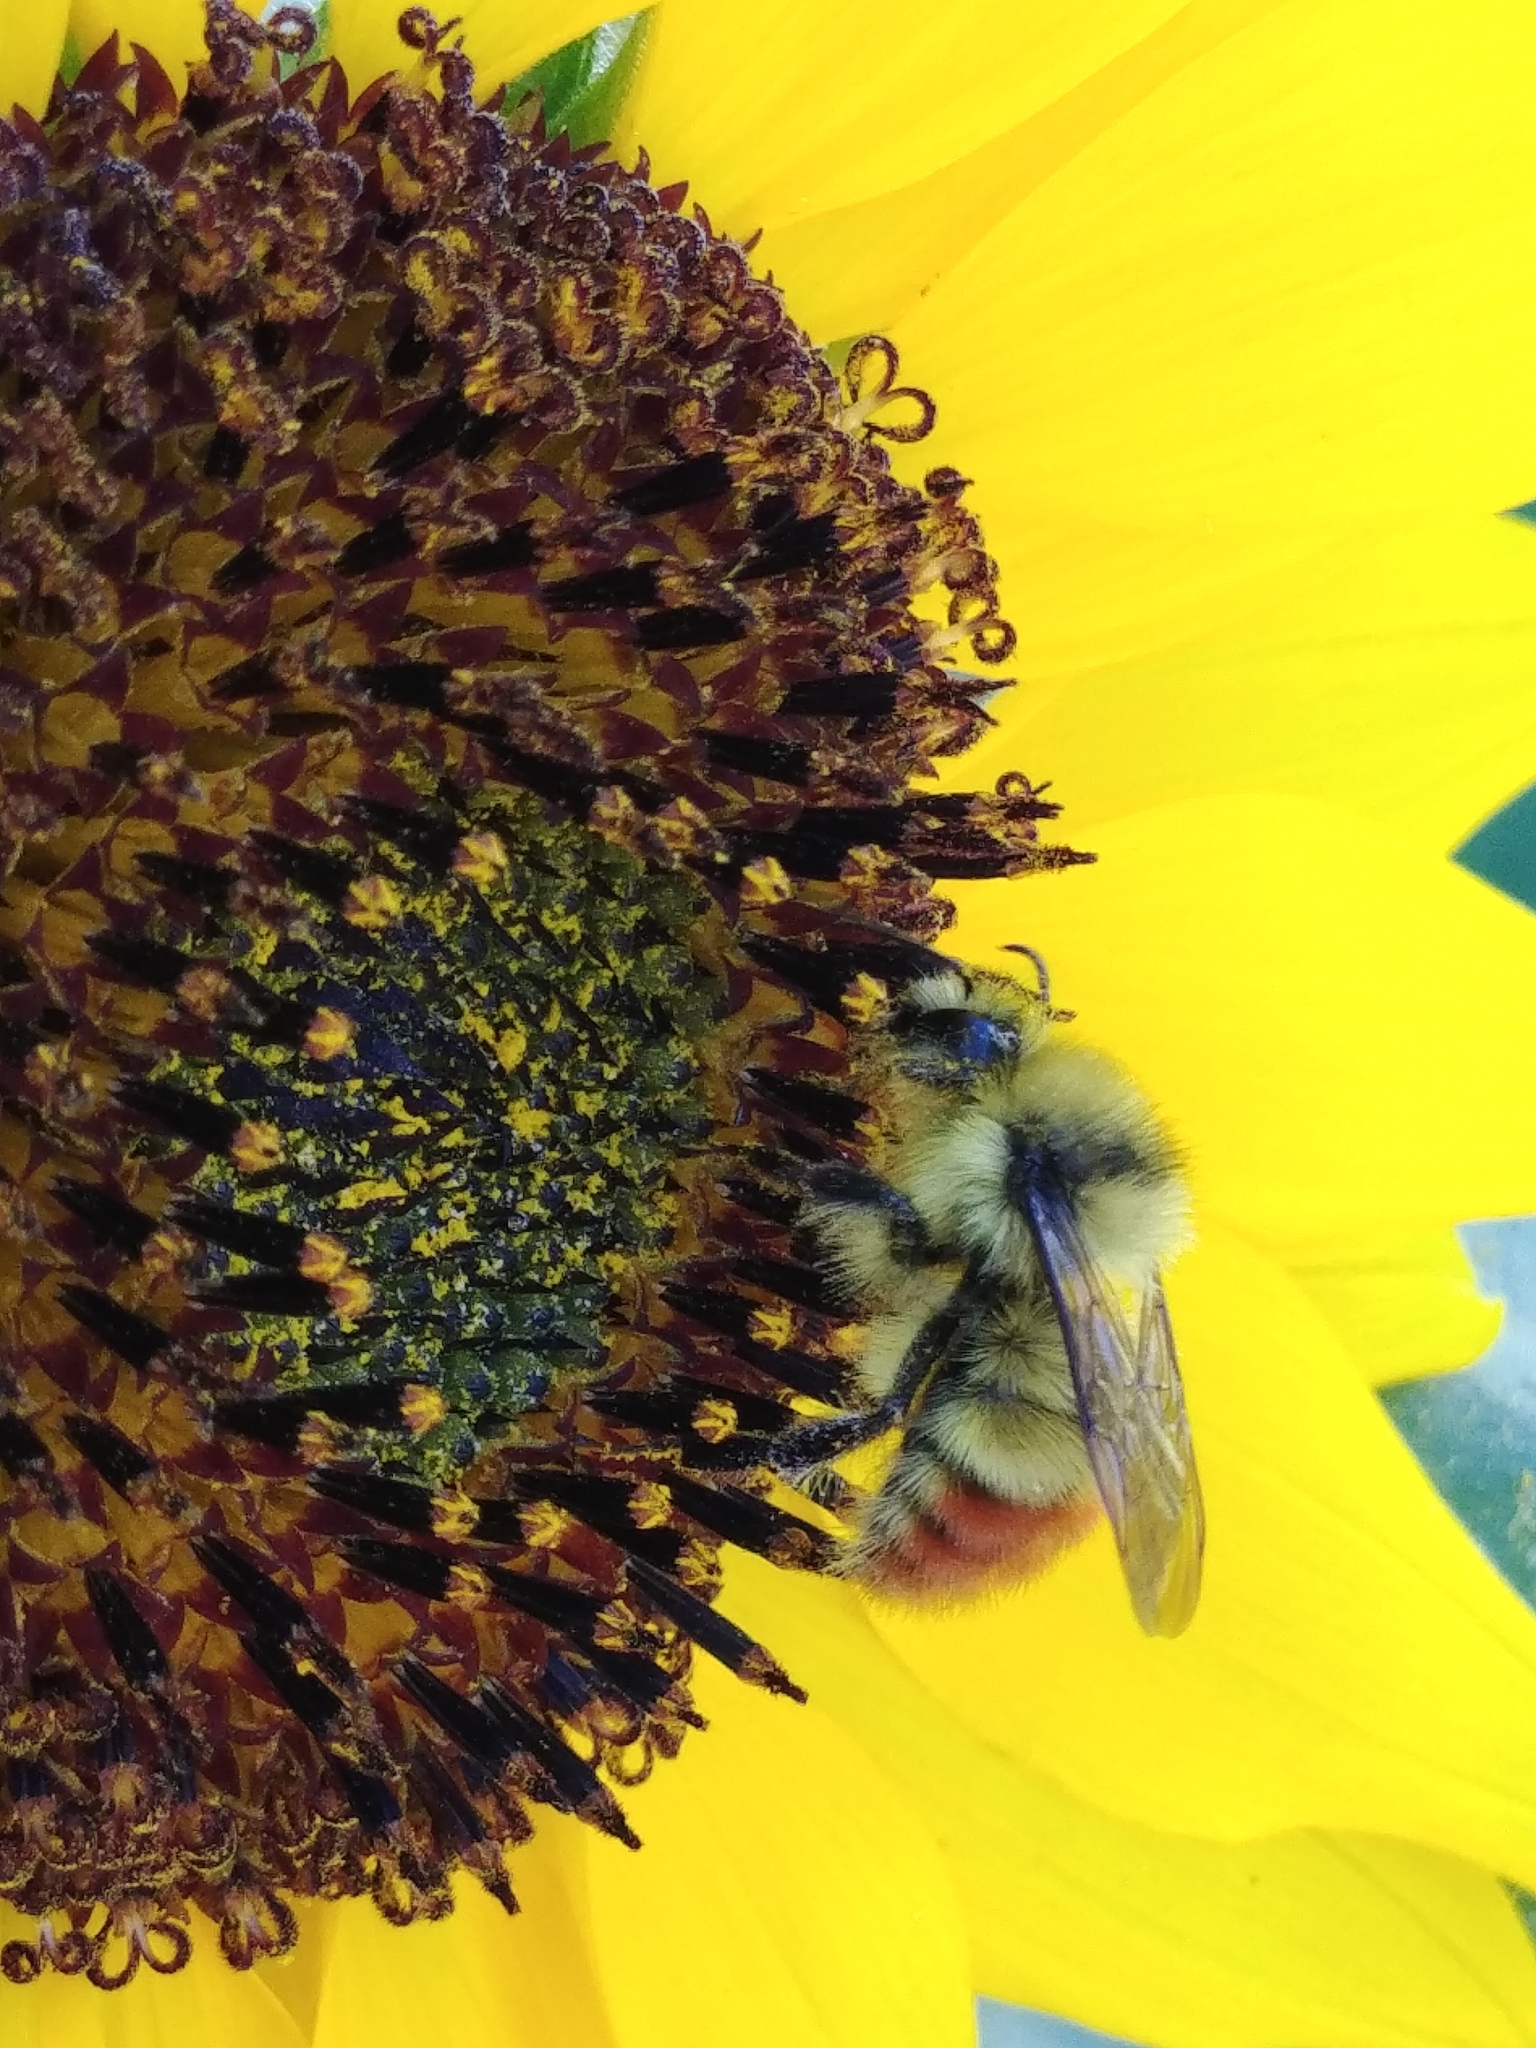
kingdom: Animalia
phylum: Arthropoda
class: Insecta
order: Hymenoptera
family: Apidae
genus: Bombus
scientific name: Bombus centralis
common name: Central bumble bee
